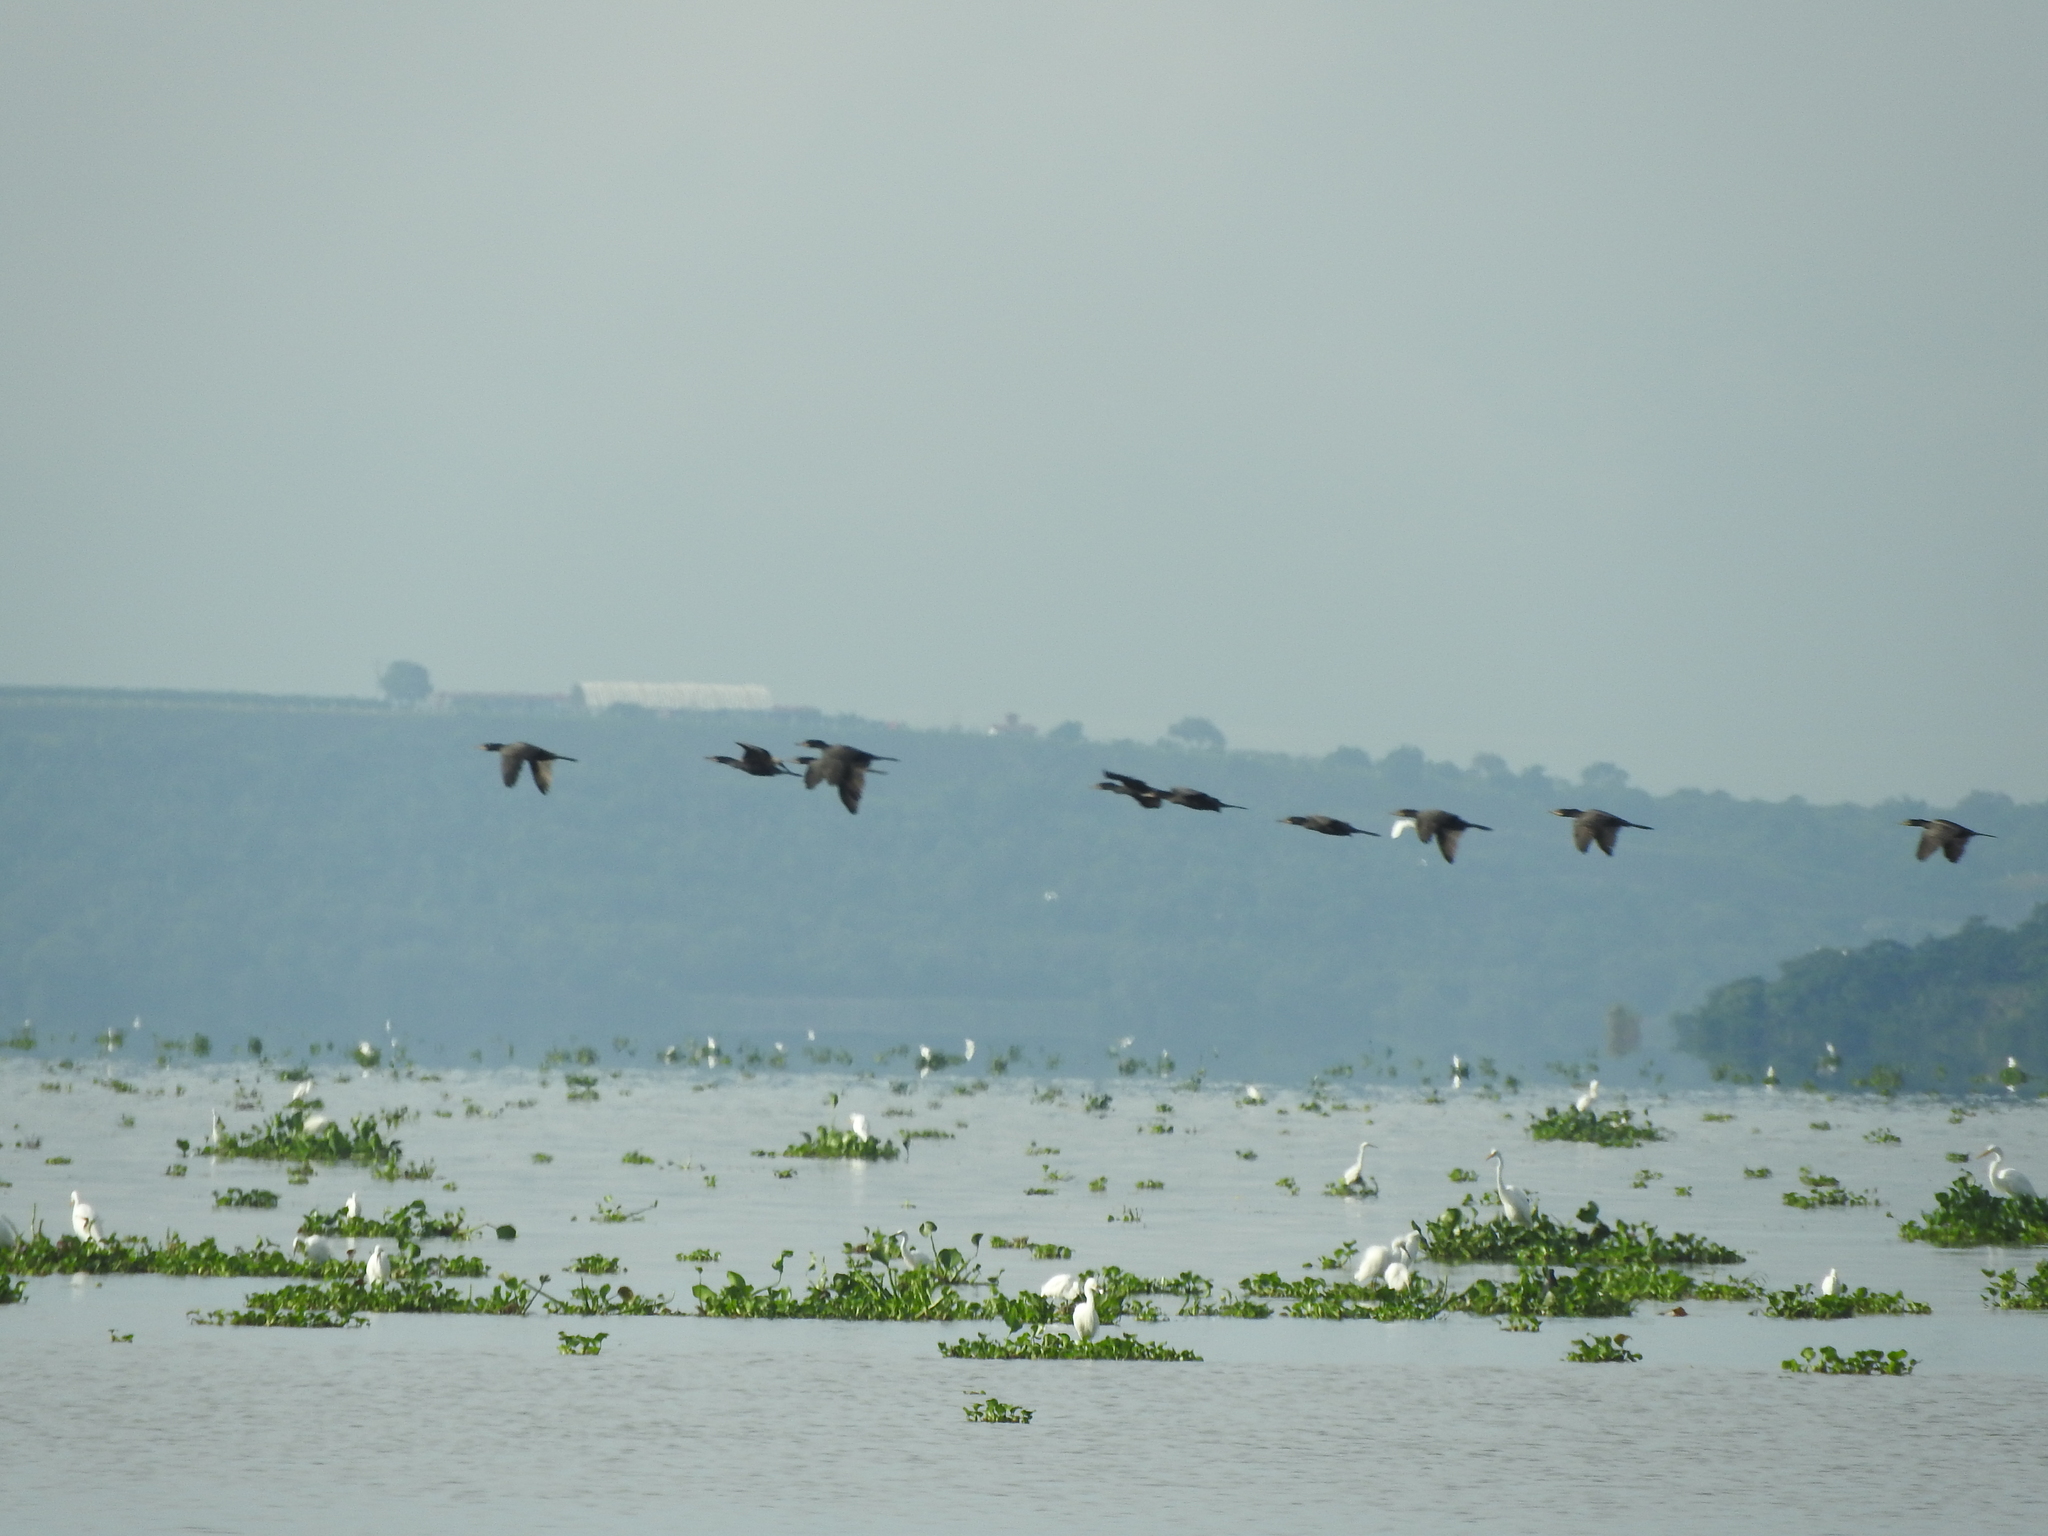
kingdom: Animalia
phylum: Chordata
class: Aves
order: Suliformes
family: Phalacrocoracidae
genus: Phalacrocorax
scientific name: Phalacrocorax brasilianus
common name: Neotropic cormorant
